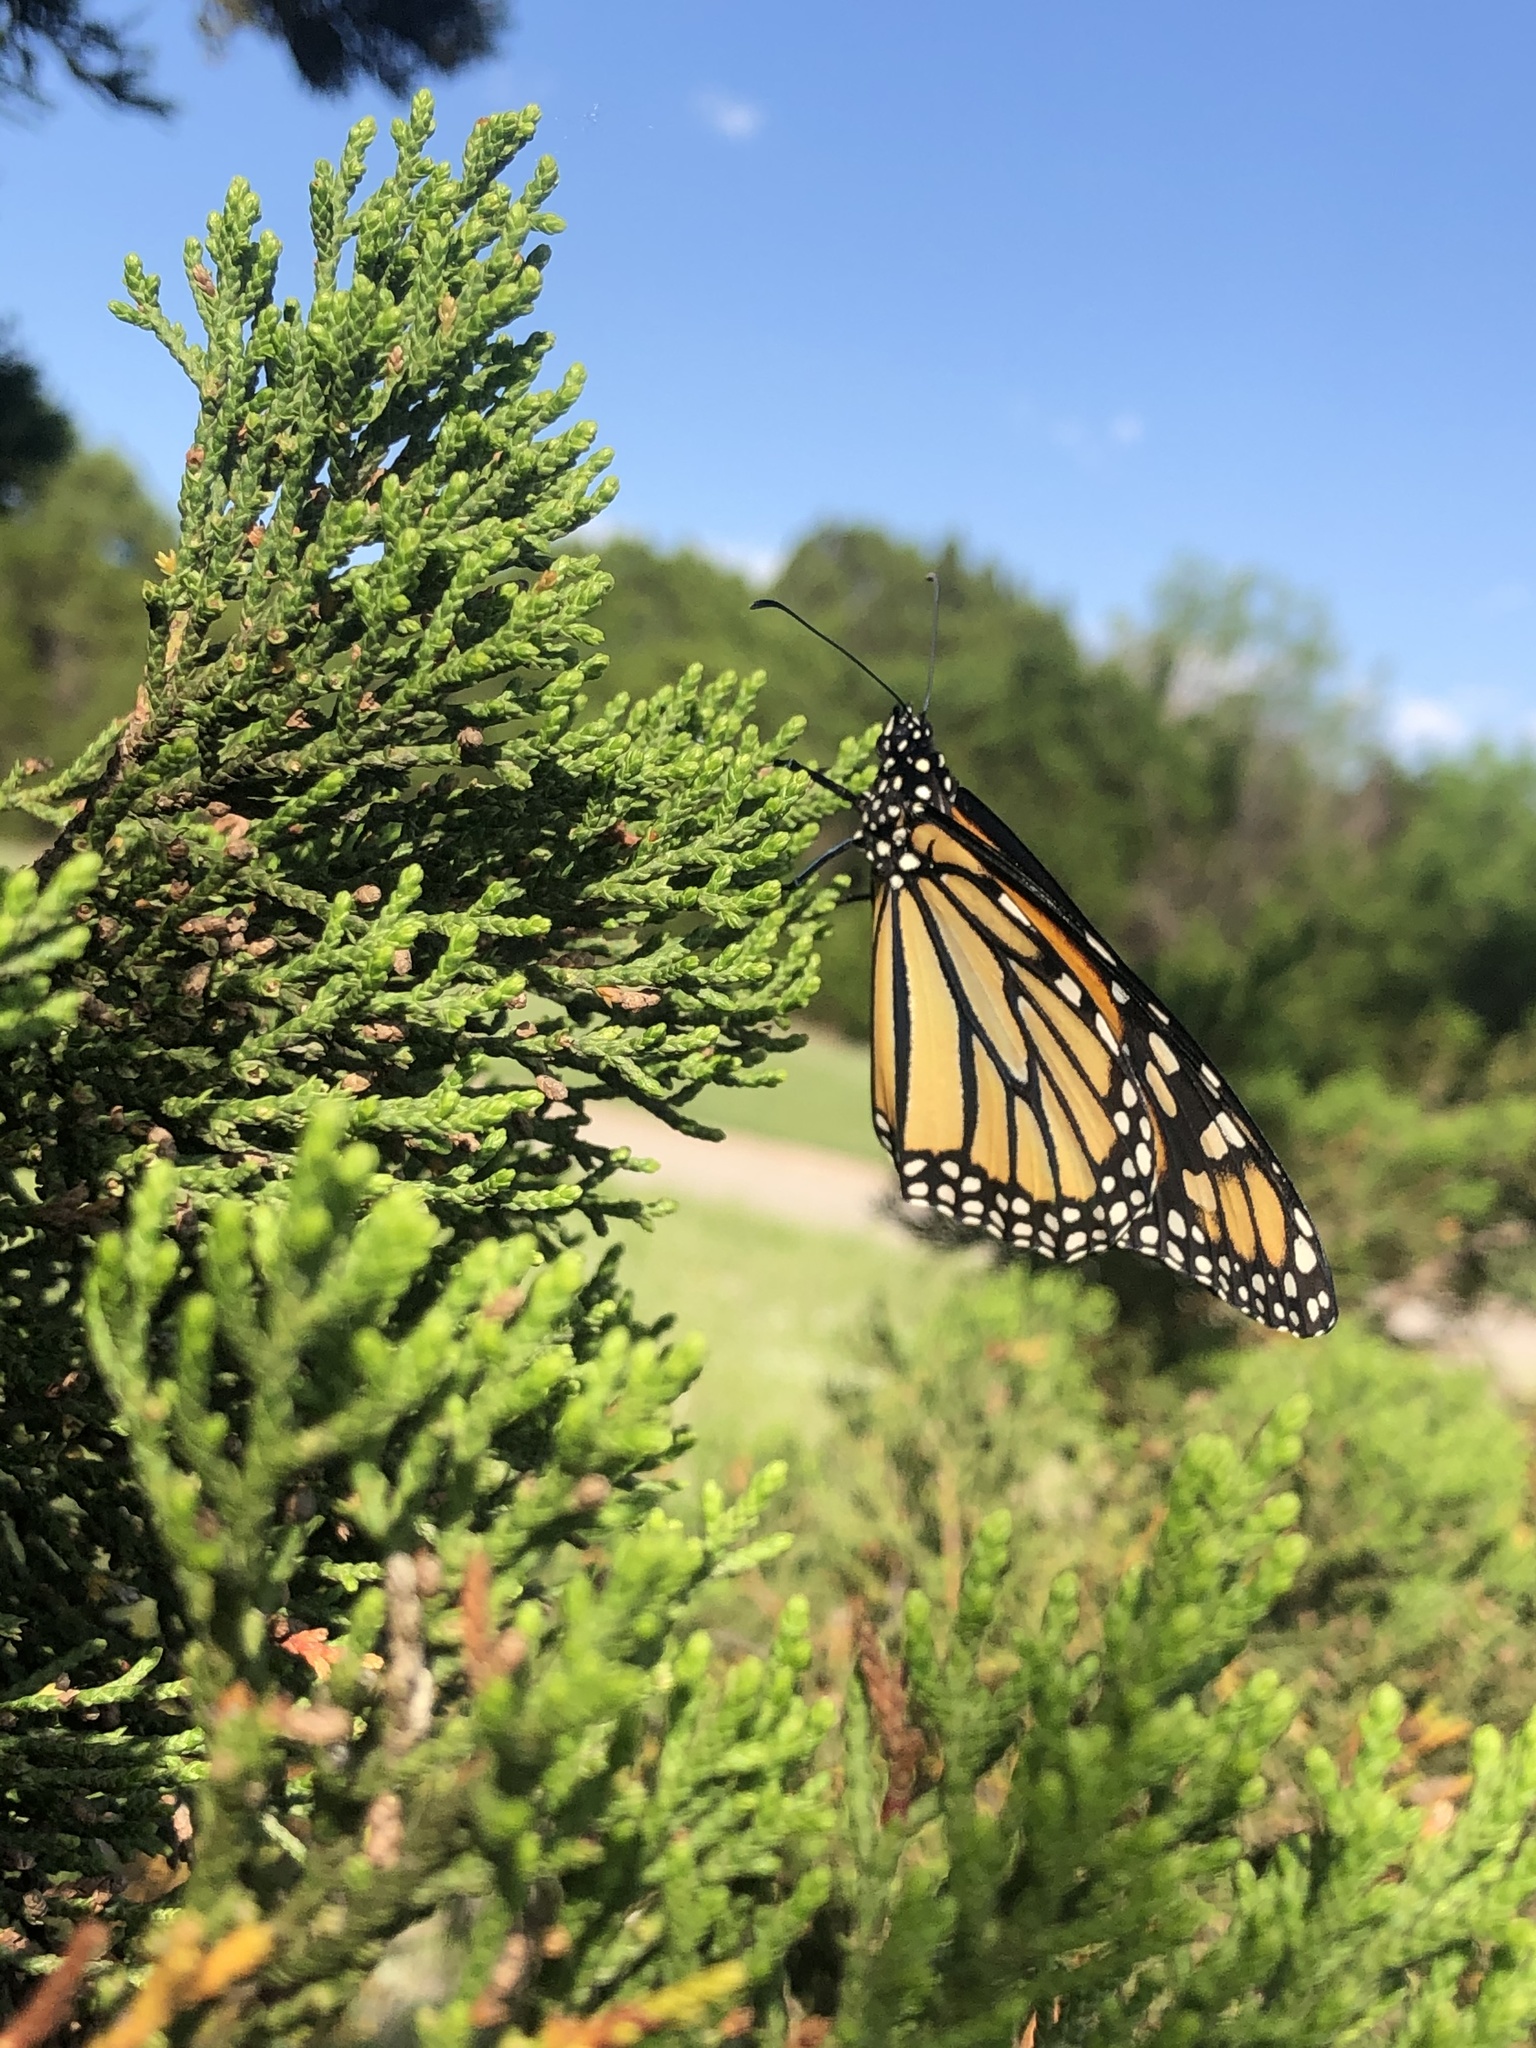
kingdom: Animalia
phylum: Arthropoda
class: Insecta
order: Lepidoptera
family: Nymphalidae
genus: Danaus
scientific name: Danaus plexippus
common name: Monarch
